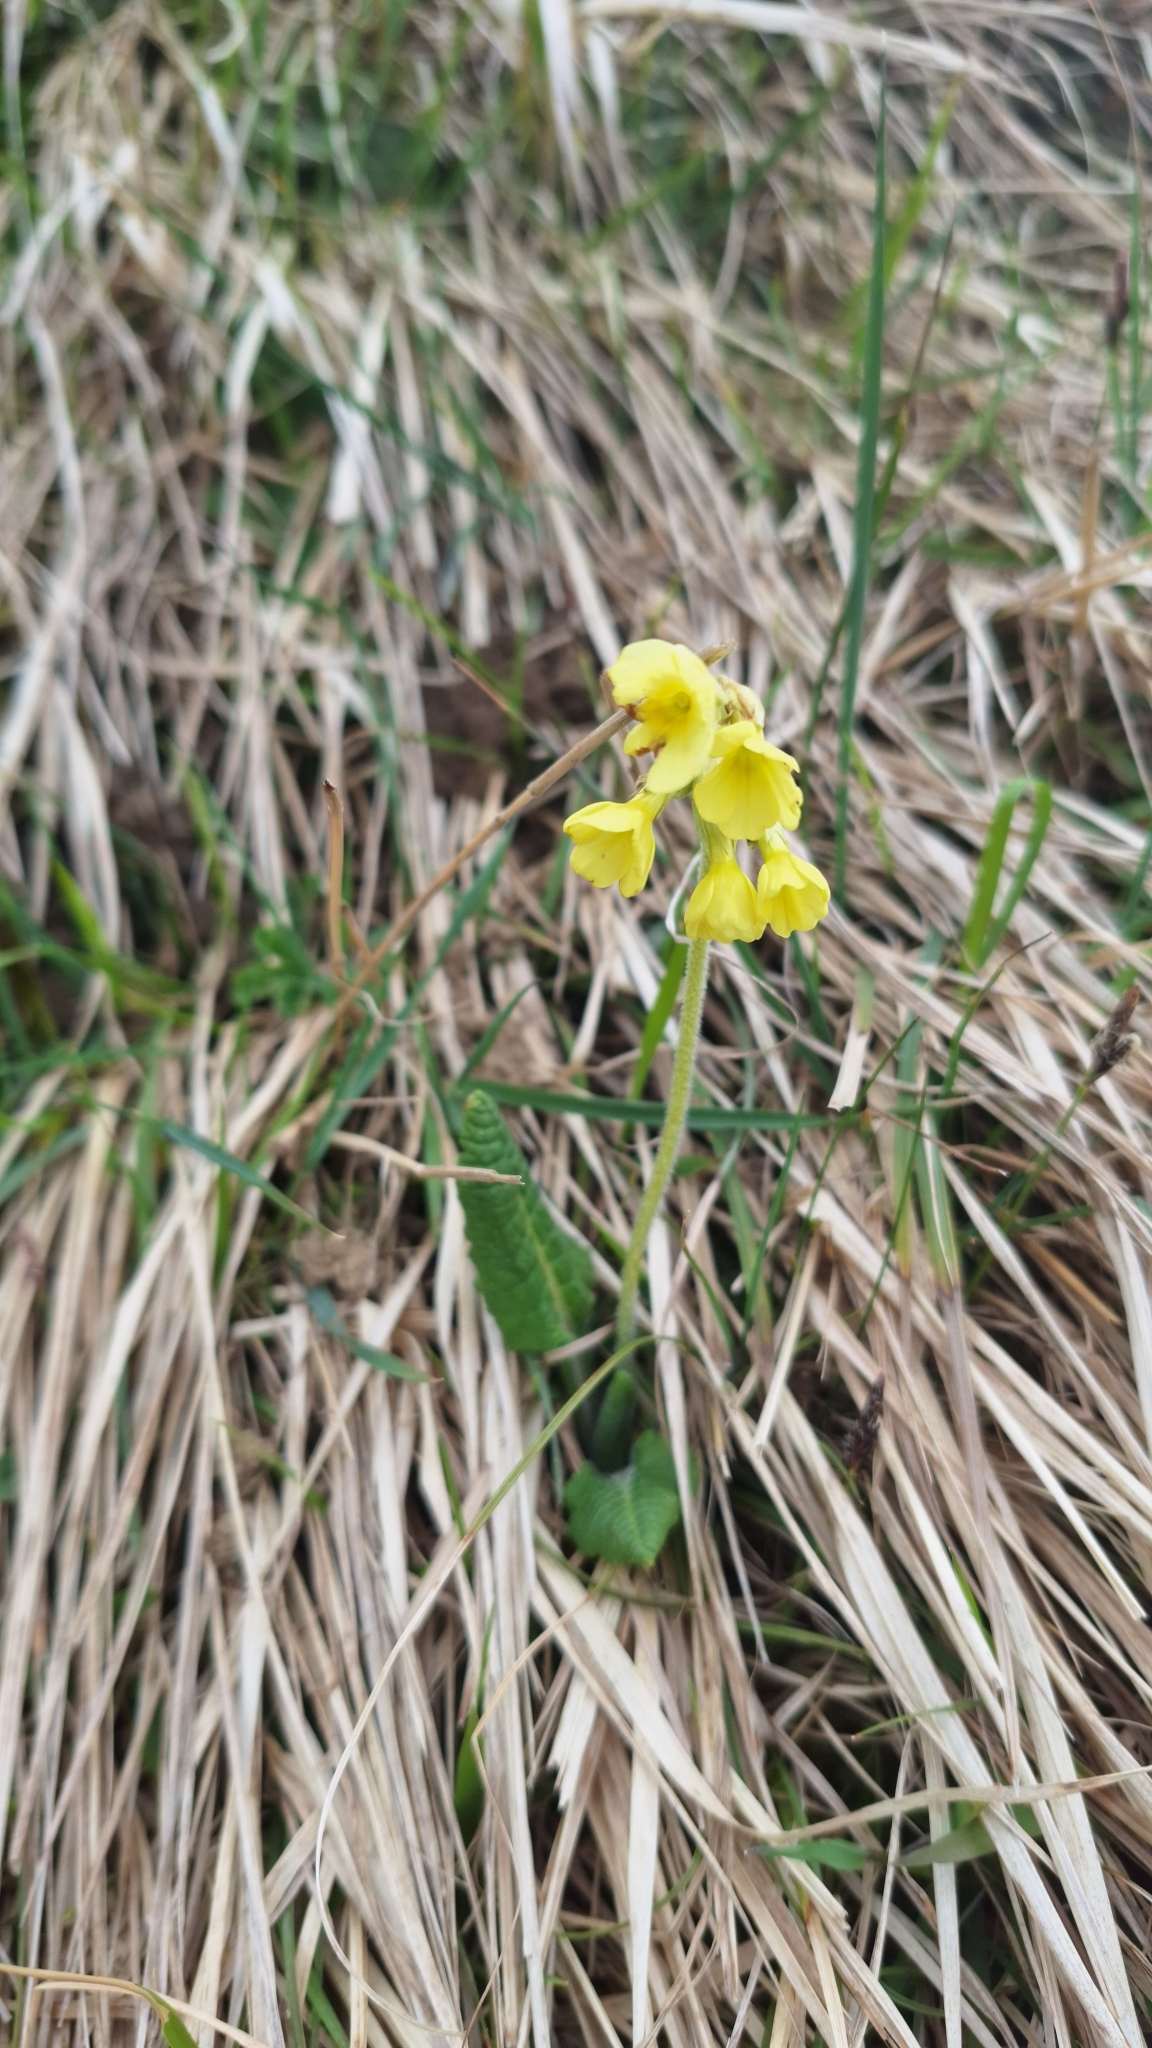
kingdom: Plantae
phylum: Tracheophyta
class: Magnoliopsida
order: Ericales
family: Primulaceae
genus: Primula
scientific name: Primula elatior
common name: Oxlip
